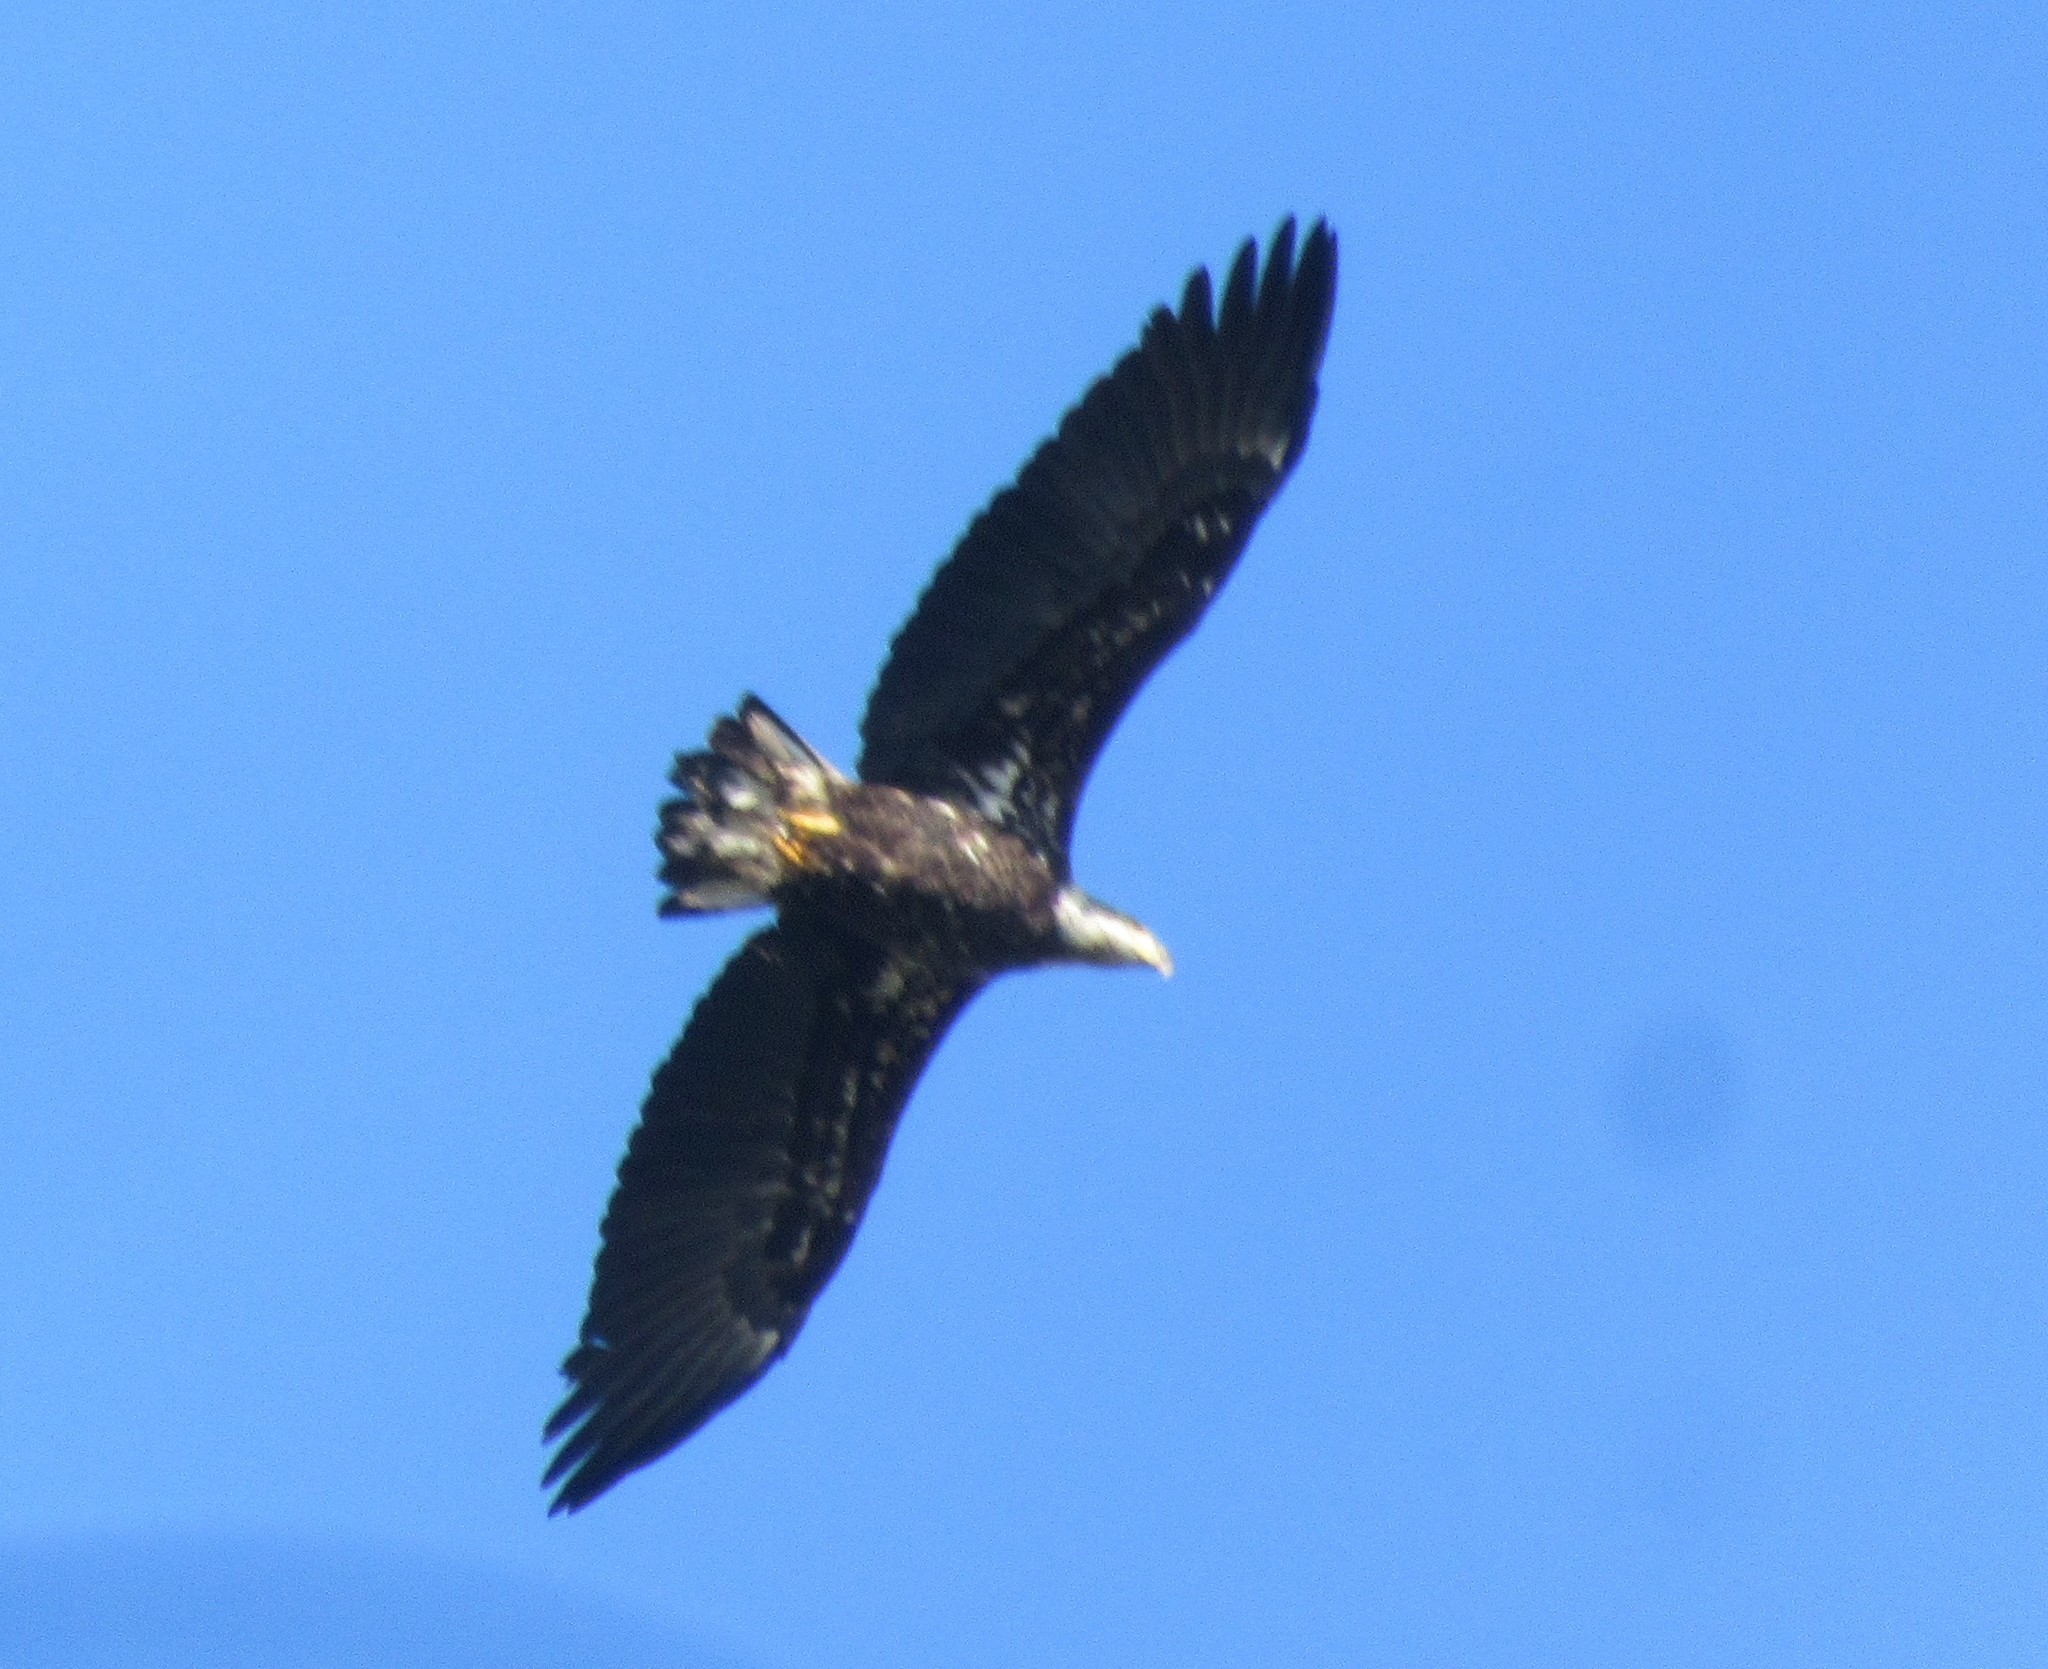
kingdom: Animalia
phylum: Chordata
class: Aves
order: Accipitriformes
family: Accipitridae
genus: Haliaeetus
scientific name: Haliaeetus leucocephalus
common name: Bald eagle
